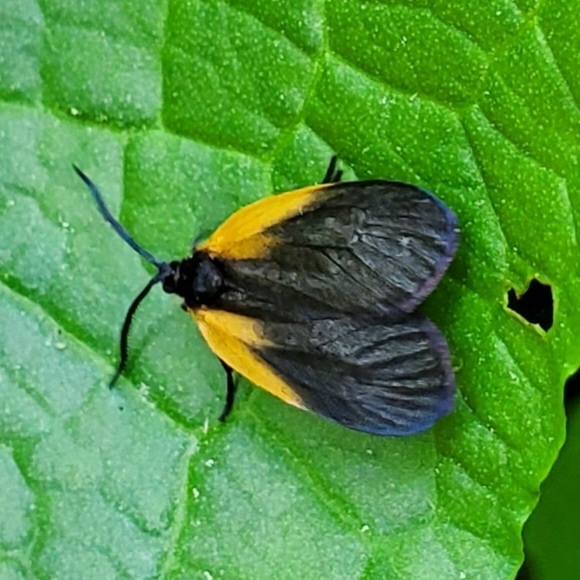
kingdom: Animalia
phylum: Arthropoda
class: Insecta
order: Lepidoptera
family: Zygaenidae
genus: Malthaca
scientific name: Malthaca dimidiata
